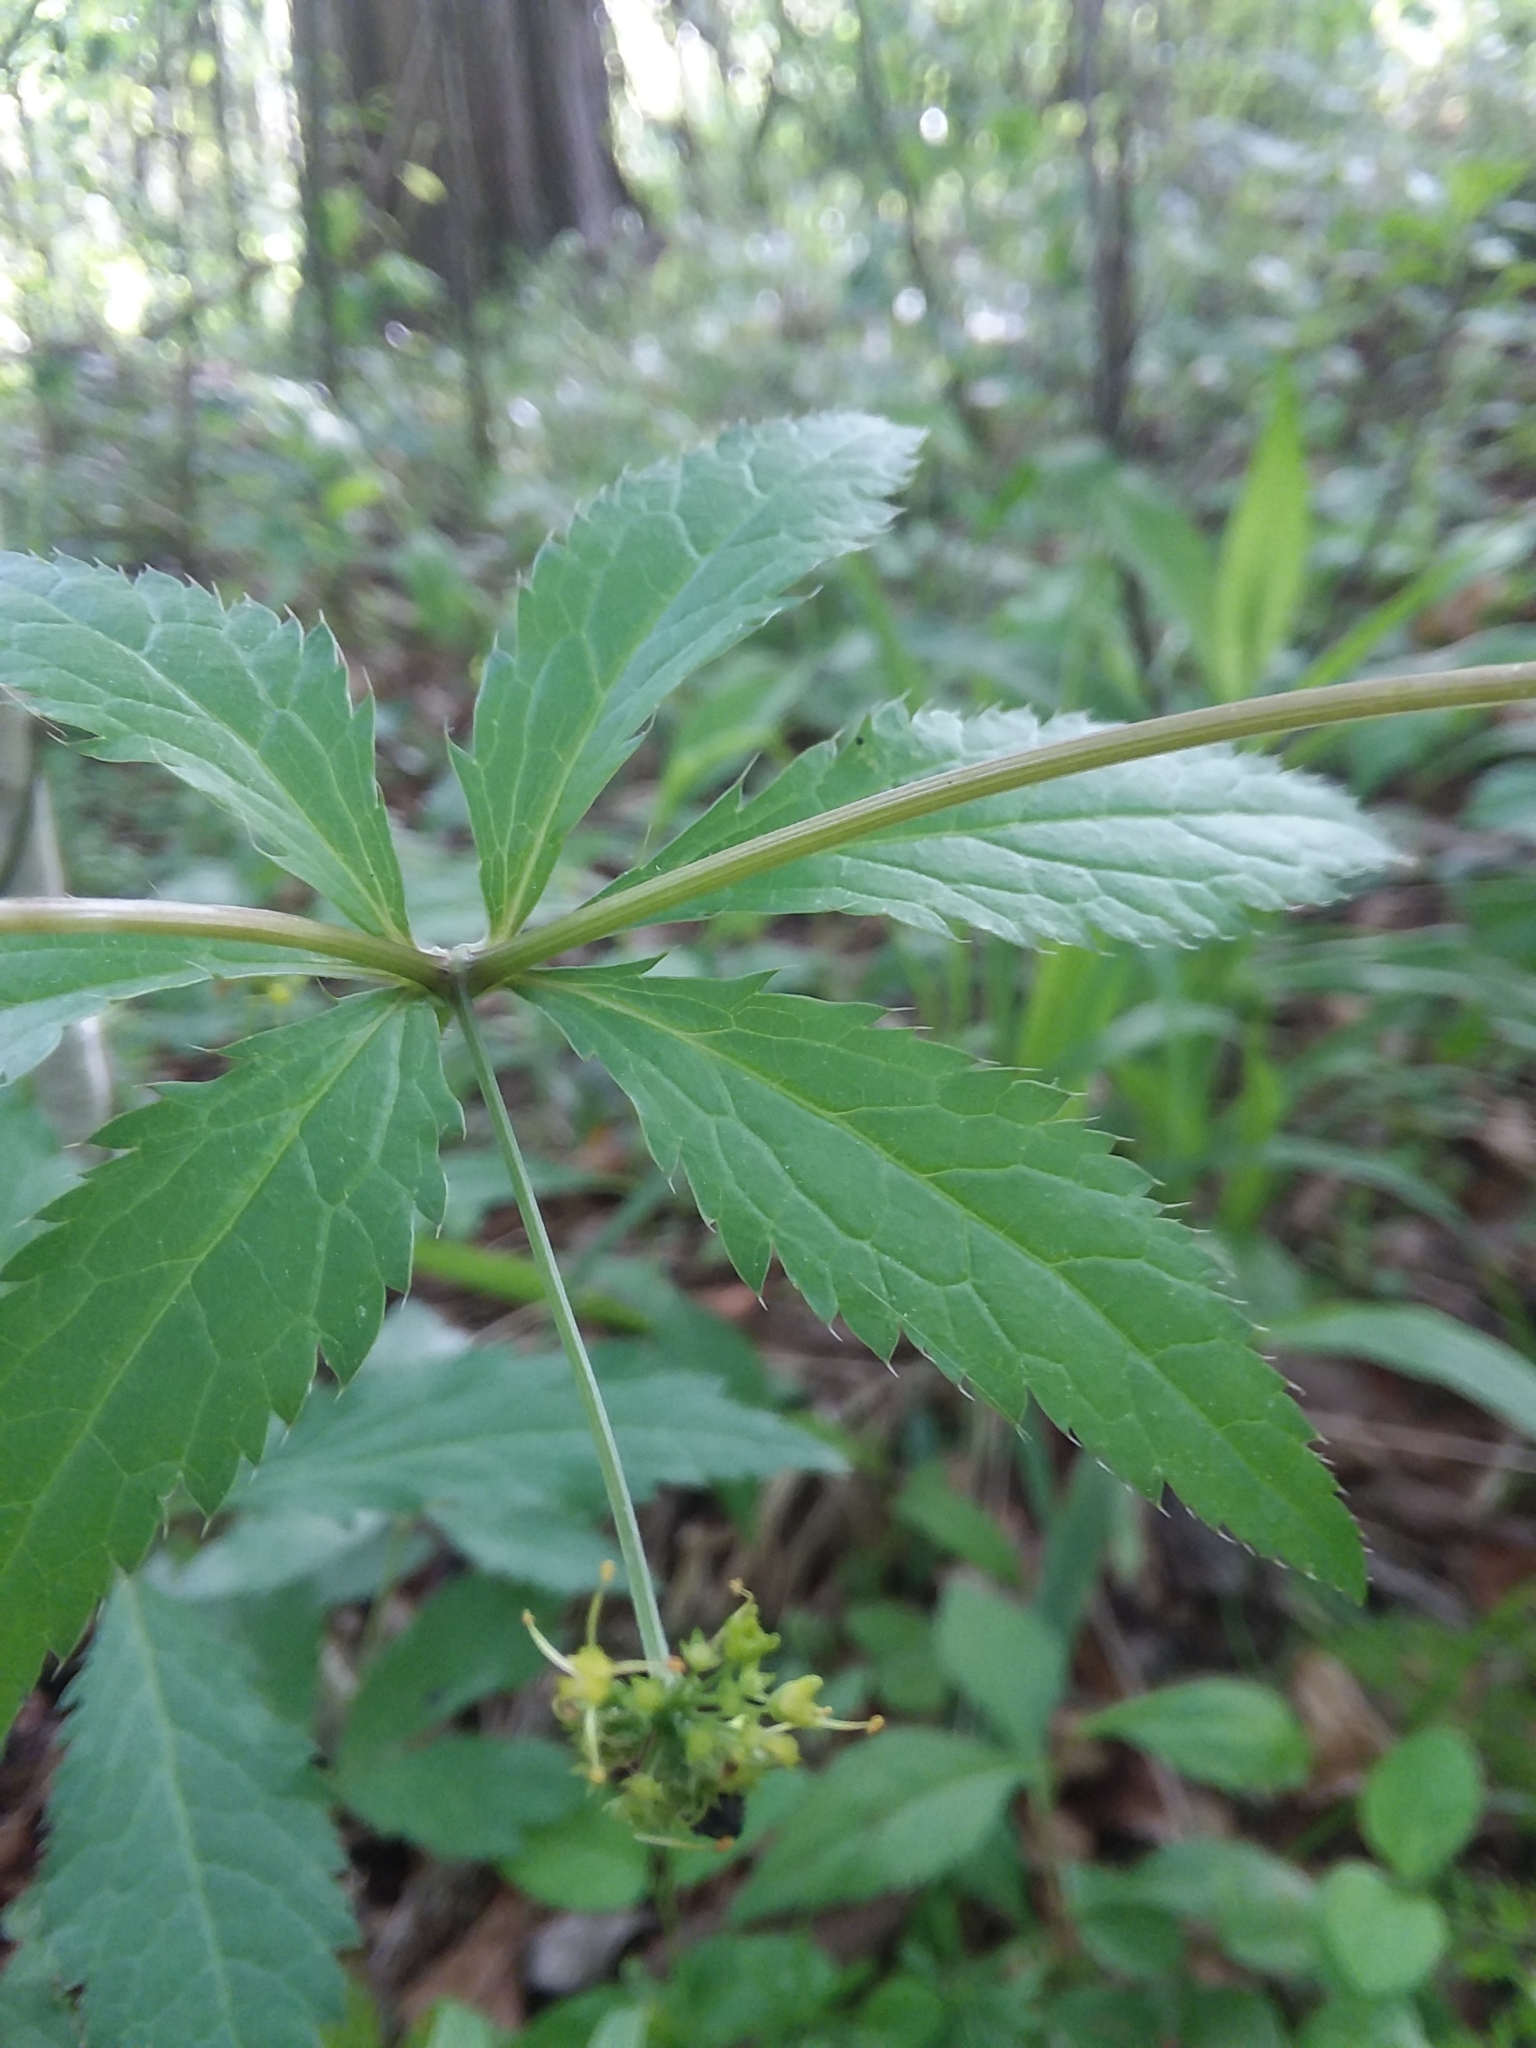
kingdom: Plantae
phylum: Tracheophyta
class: Magnoliopsida
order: Apiales
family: Apiaceae
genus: Sanicula
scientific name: Sanicula odorata
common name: Cluster sanicle
